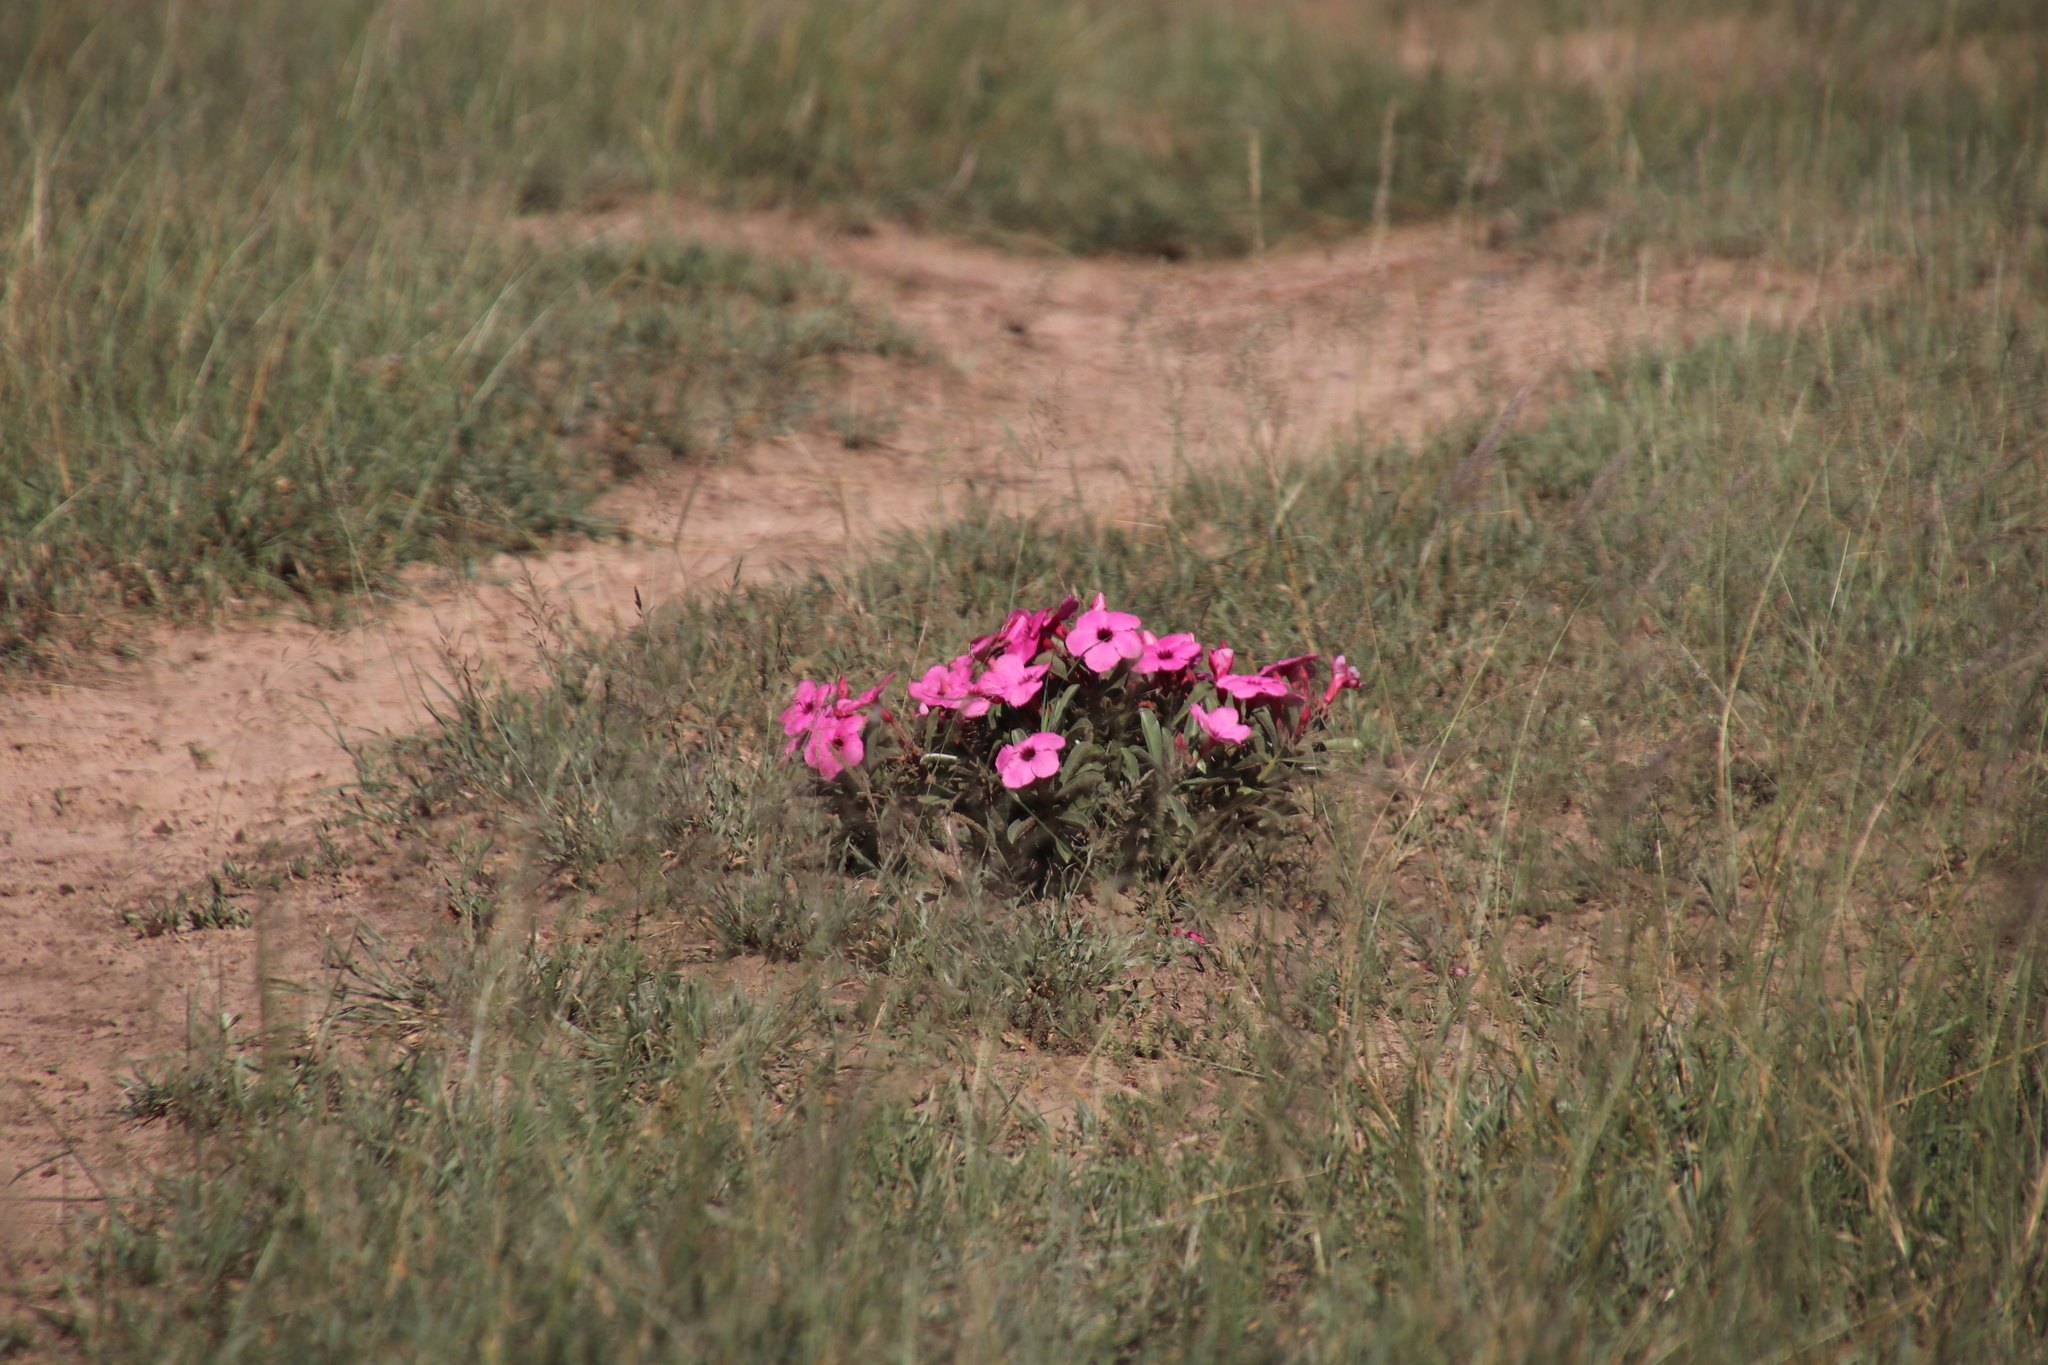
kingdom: Plantae
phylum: Tracheophyta
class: Magnoliopsida
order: Gentianales
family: Apocynaceae
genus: Adenium
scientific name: Adenium obesum
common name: Desert-rose
